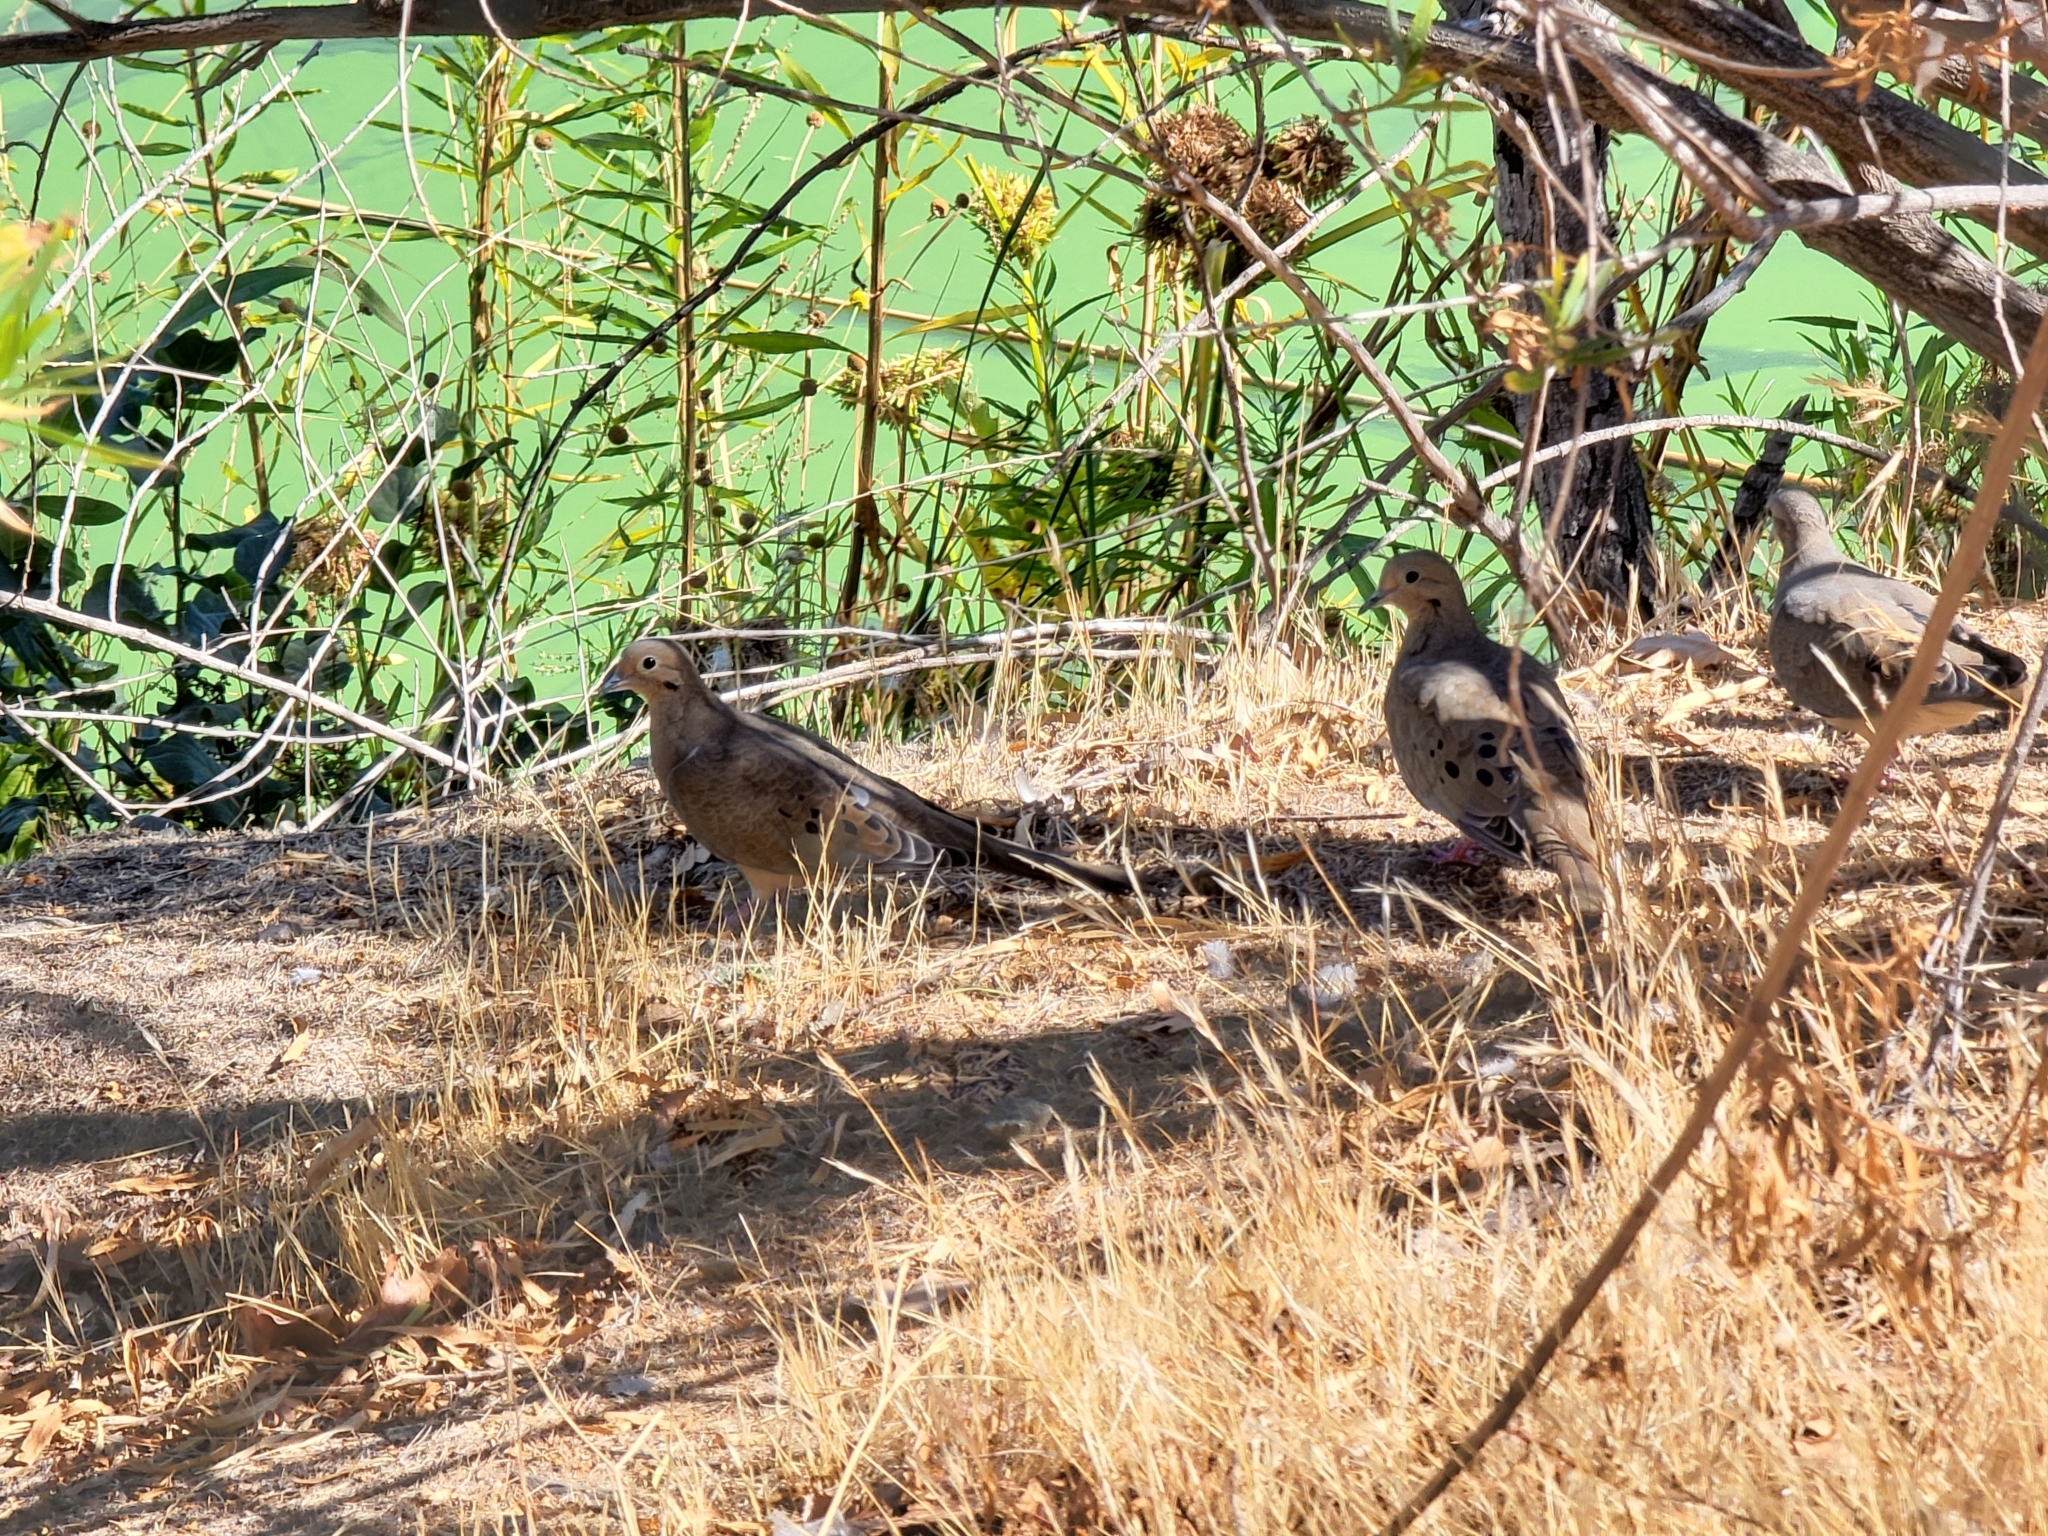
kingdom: Animalia
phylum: Chordata
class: Aves
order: Columbiformes
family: Columbidae
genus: Zenaida
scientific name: Zenaida macroura
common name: Mourning dove
